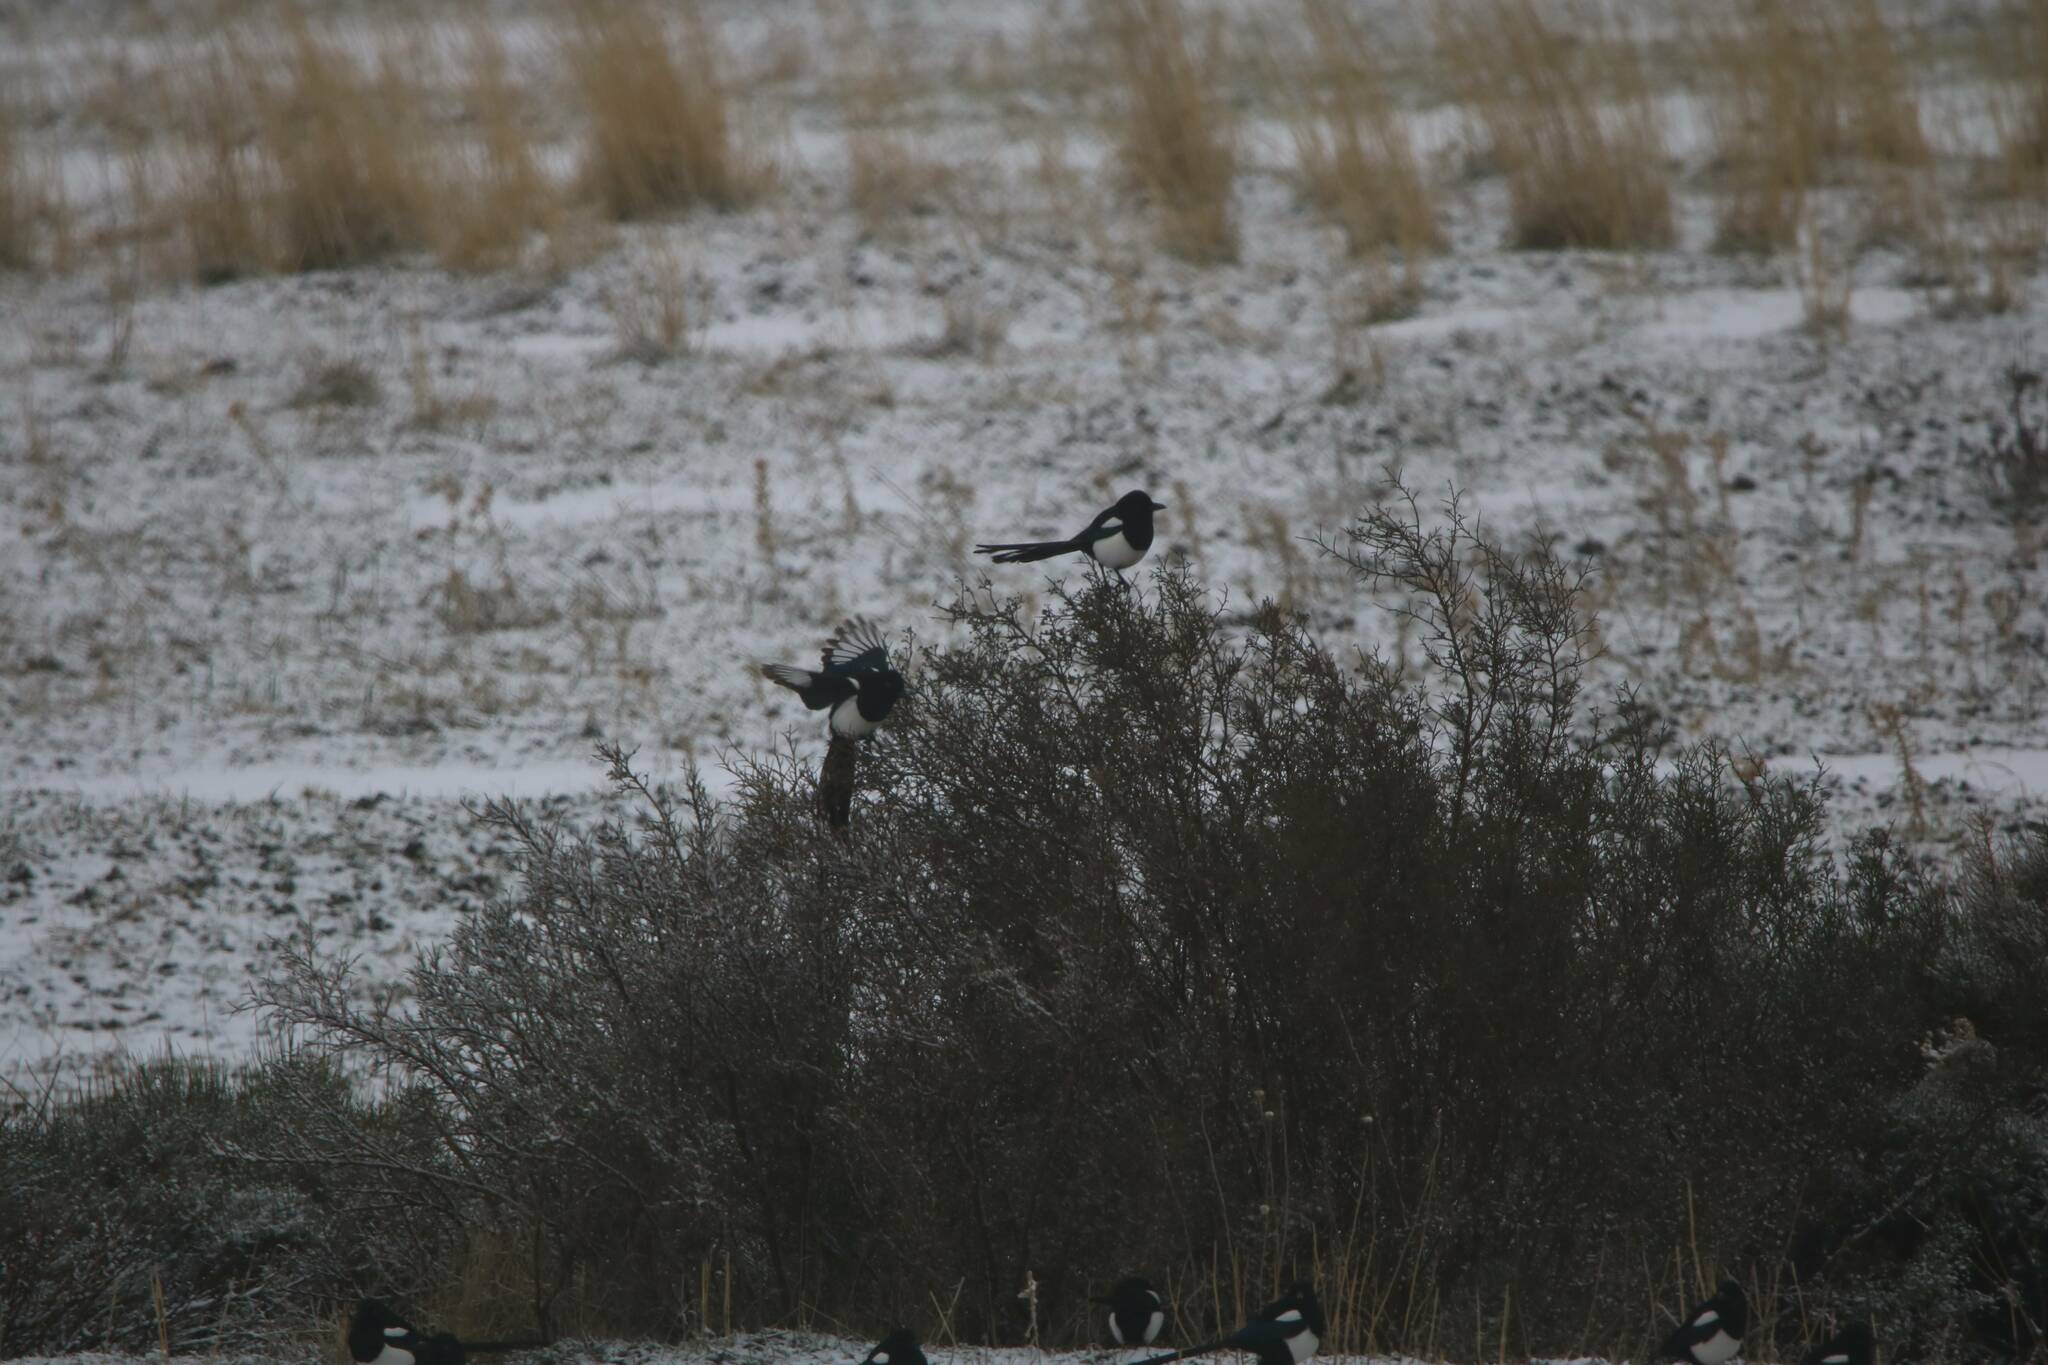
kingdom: Animalia
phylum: Chordata
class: Aves
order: Passeriformes
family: Corvidae
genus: Pica
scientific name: Pica mauritanica
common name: Maghreb magpie
